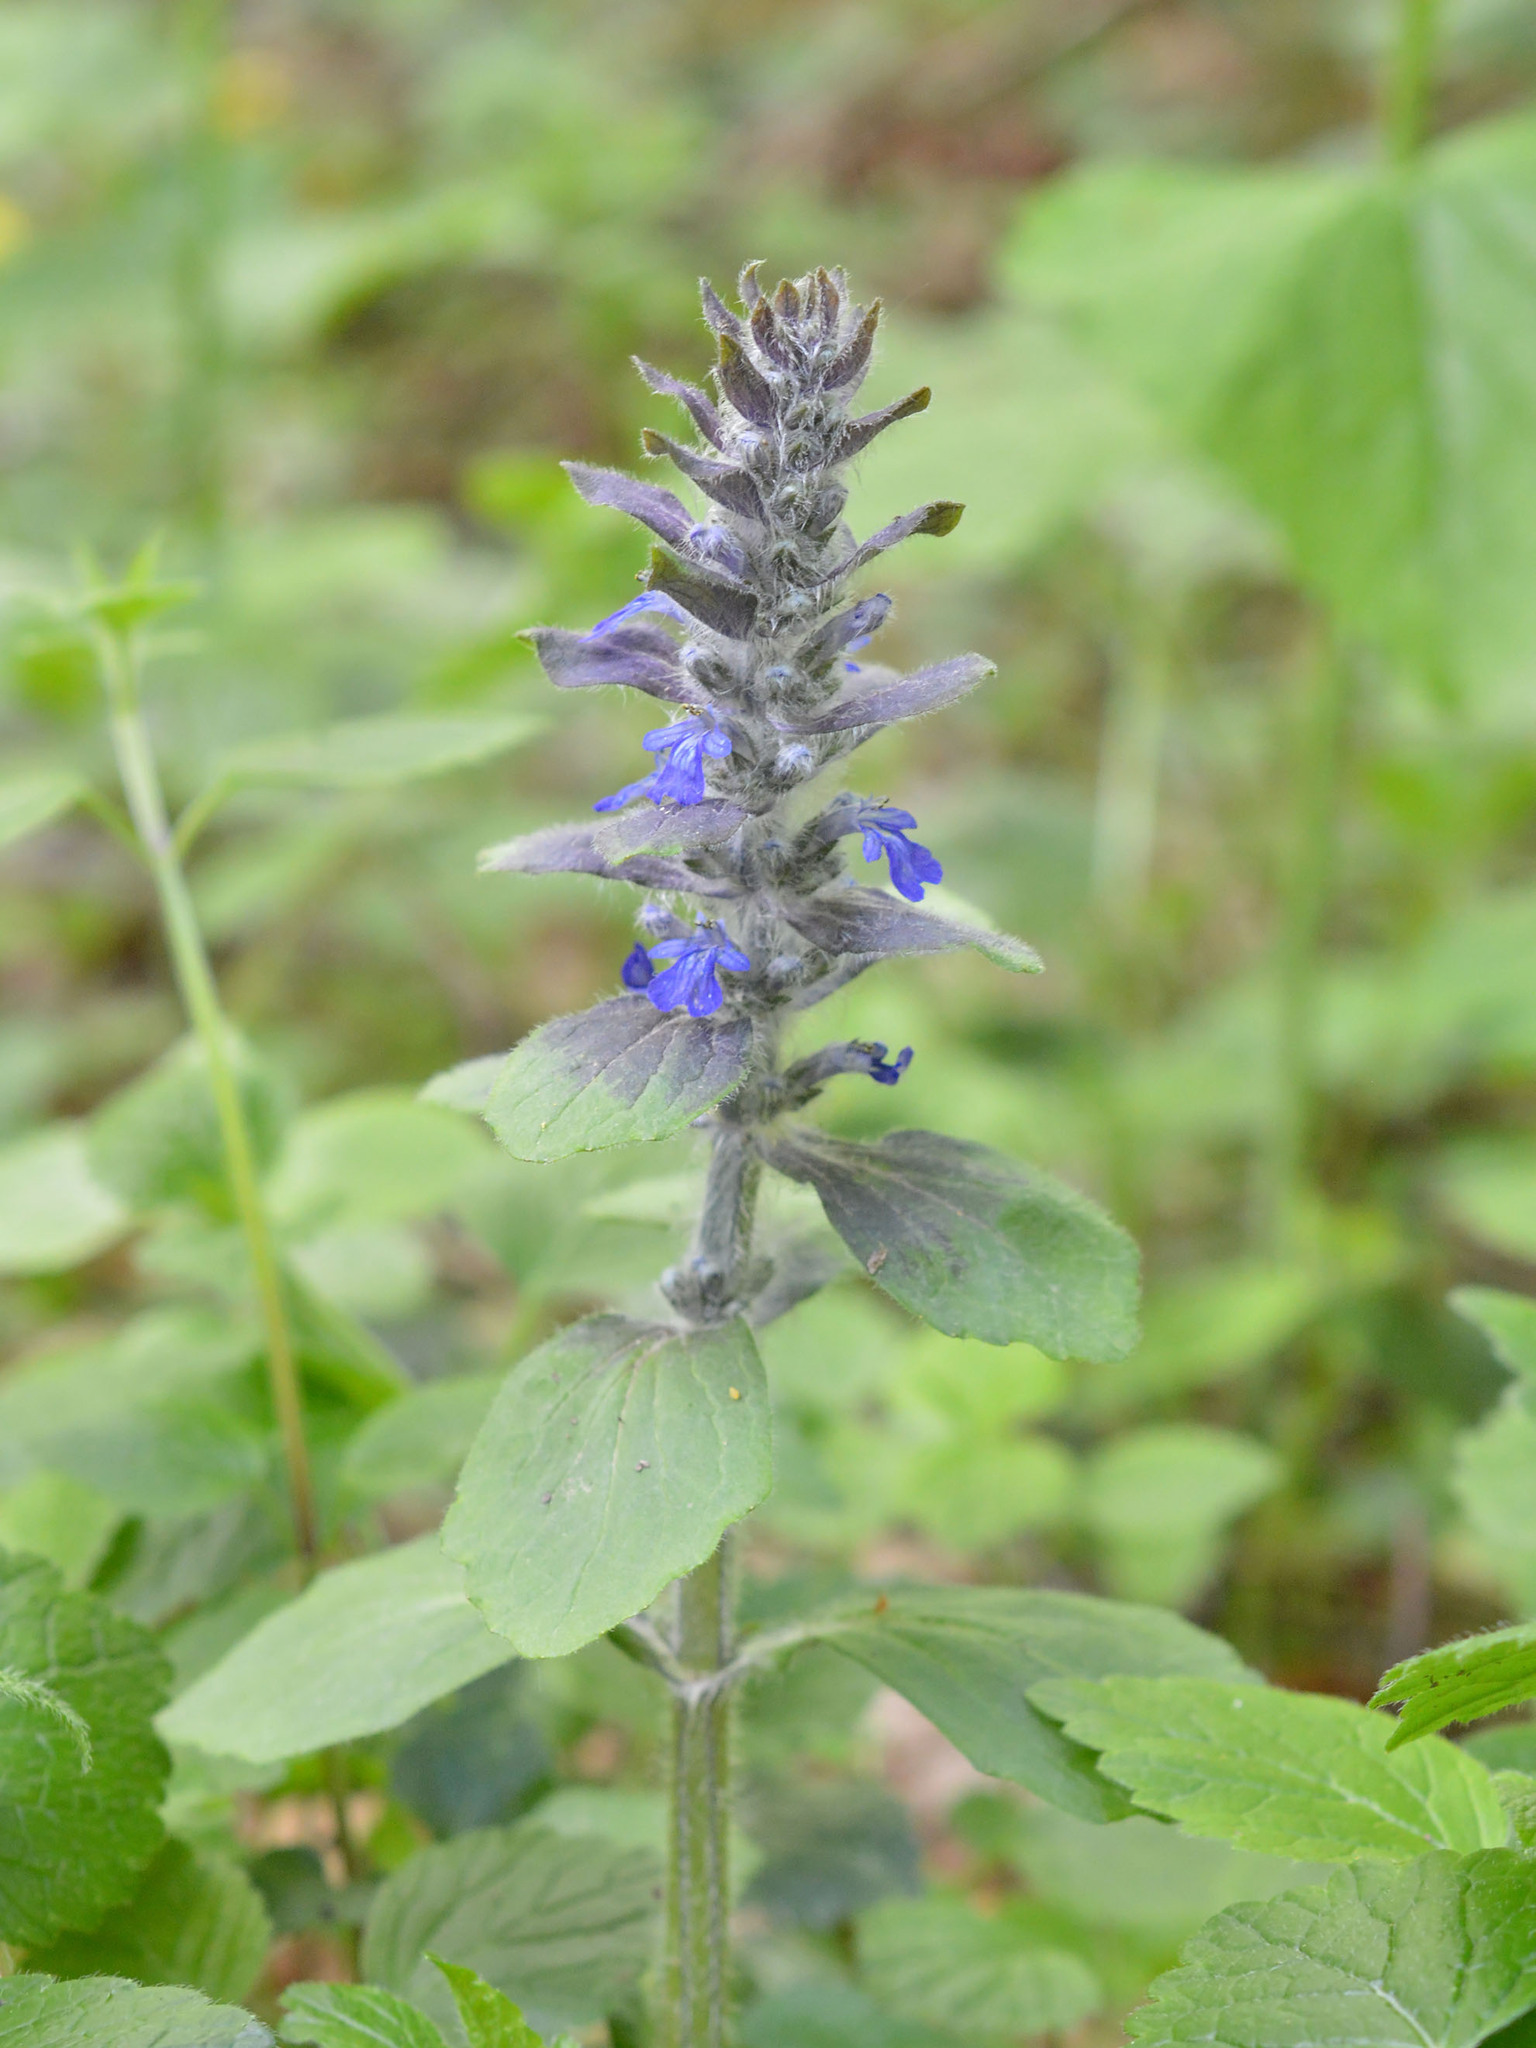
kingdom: Plantae
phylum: Tracheophyta
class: Magnoliopsida
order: Lamiales
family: Lamiaceae
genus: Ajuga
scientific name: Ajuga reptans
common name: Bugle
